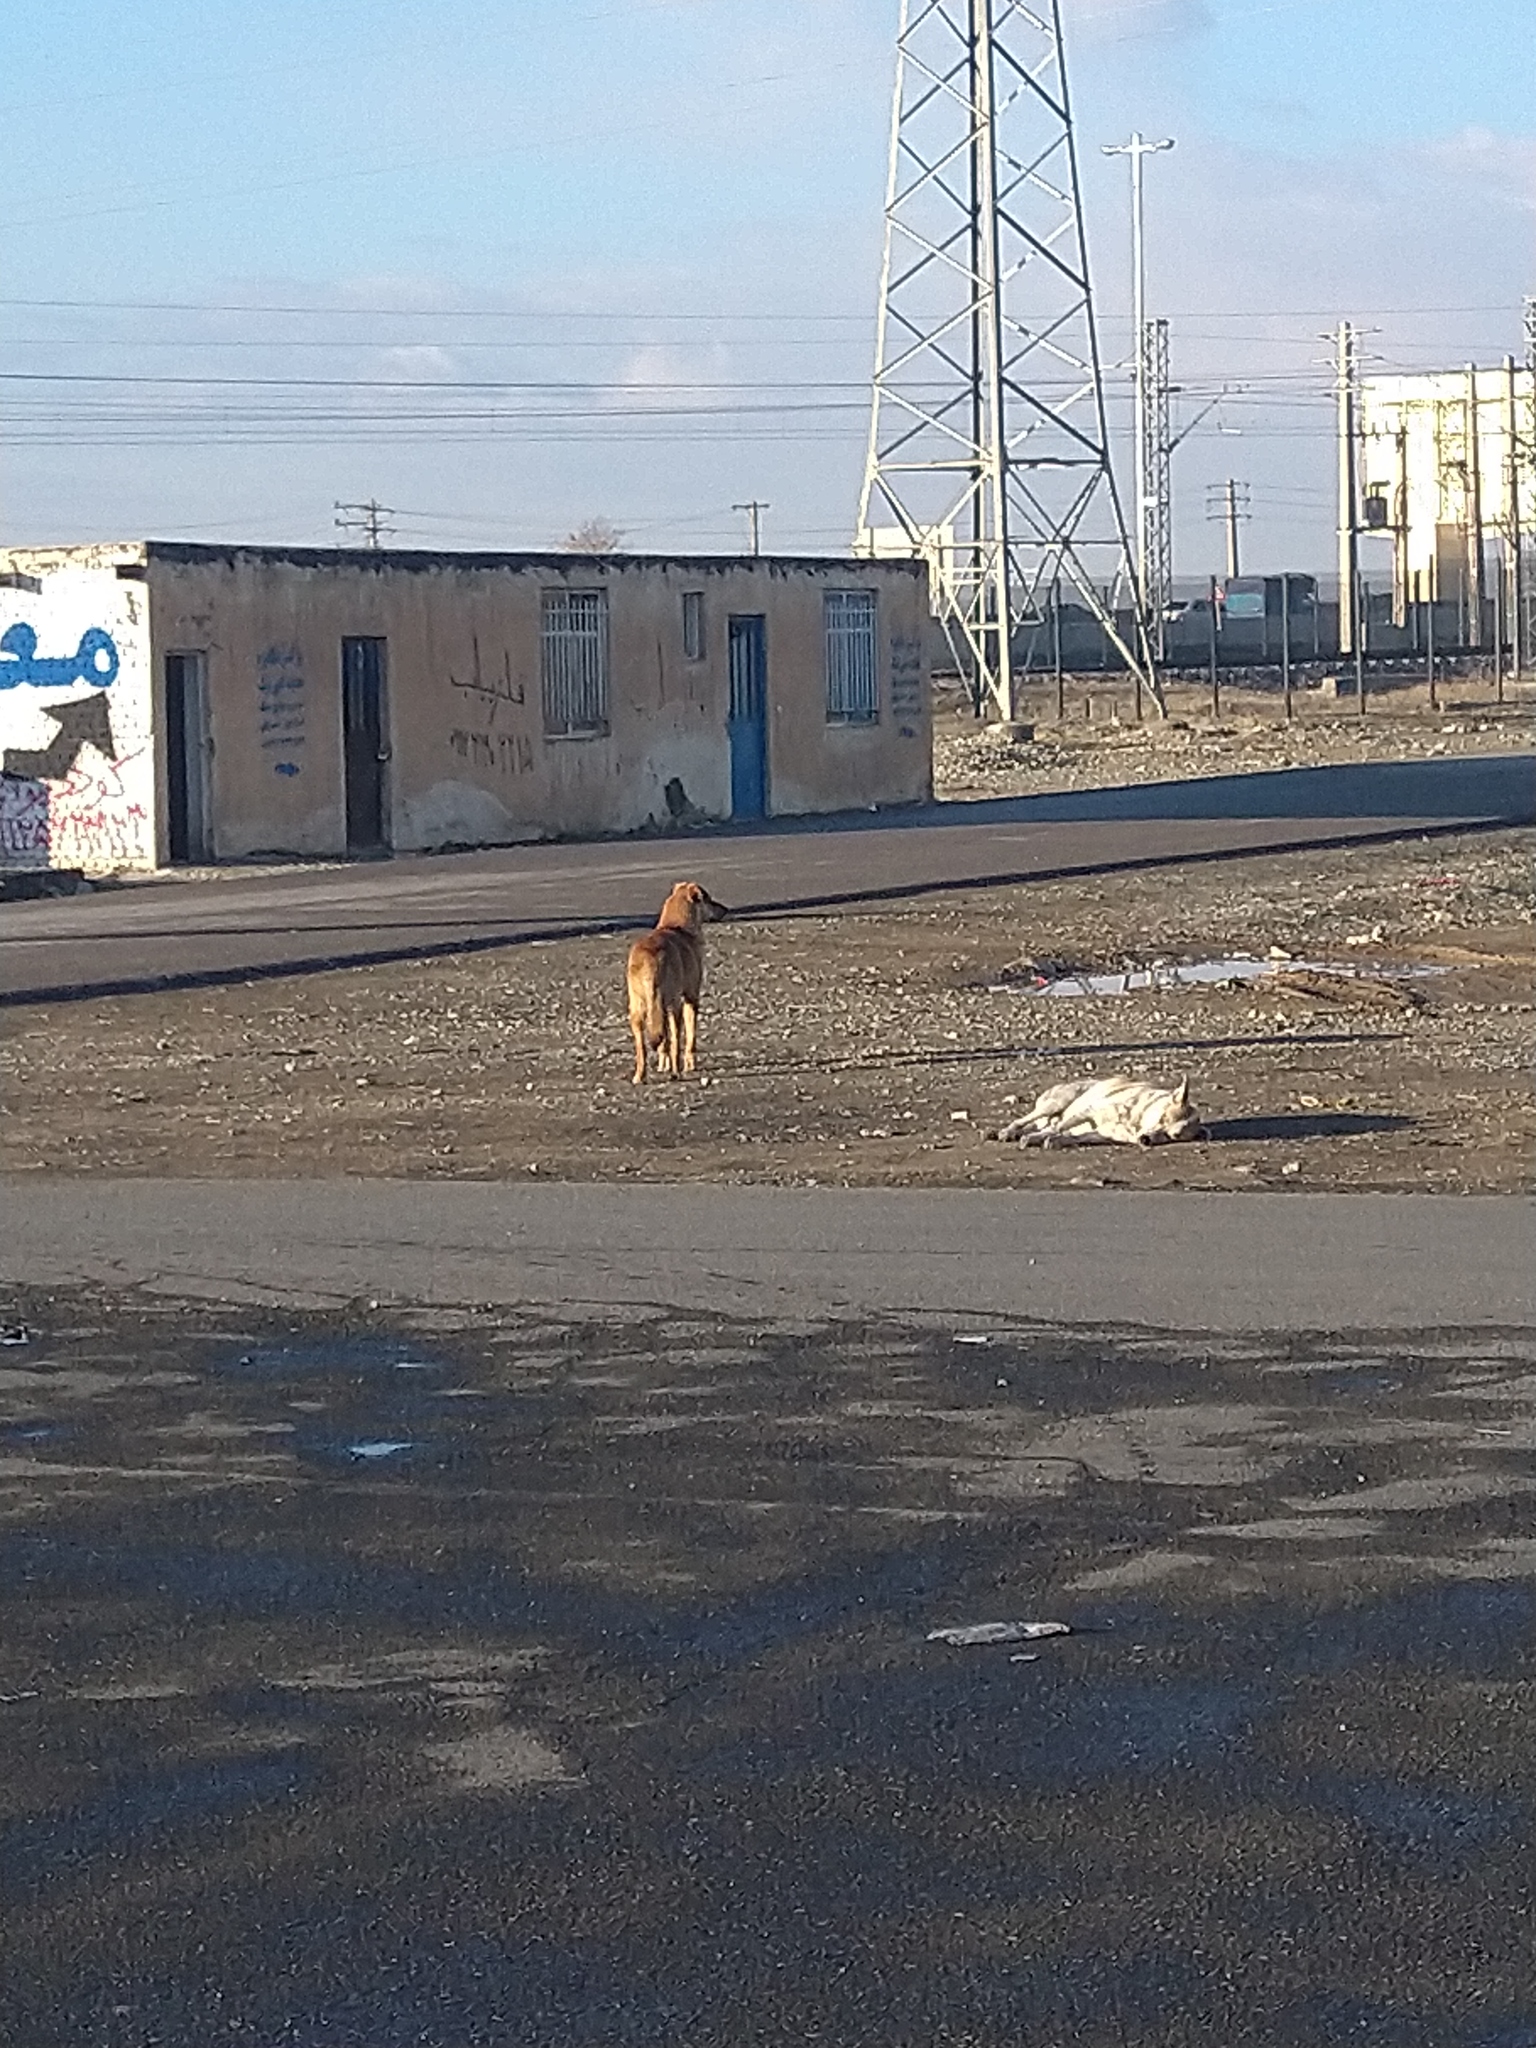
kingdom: Animalia
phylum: Chordata
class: Mammalia
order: Carnivora
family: Canidae
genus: Canis
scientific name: Canis lupus
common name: Gray wolf
